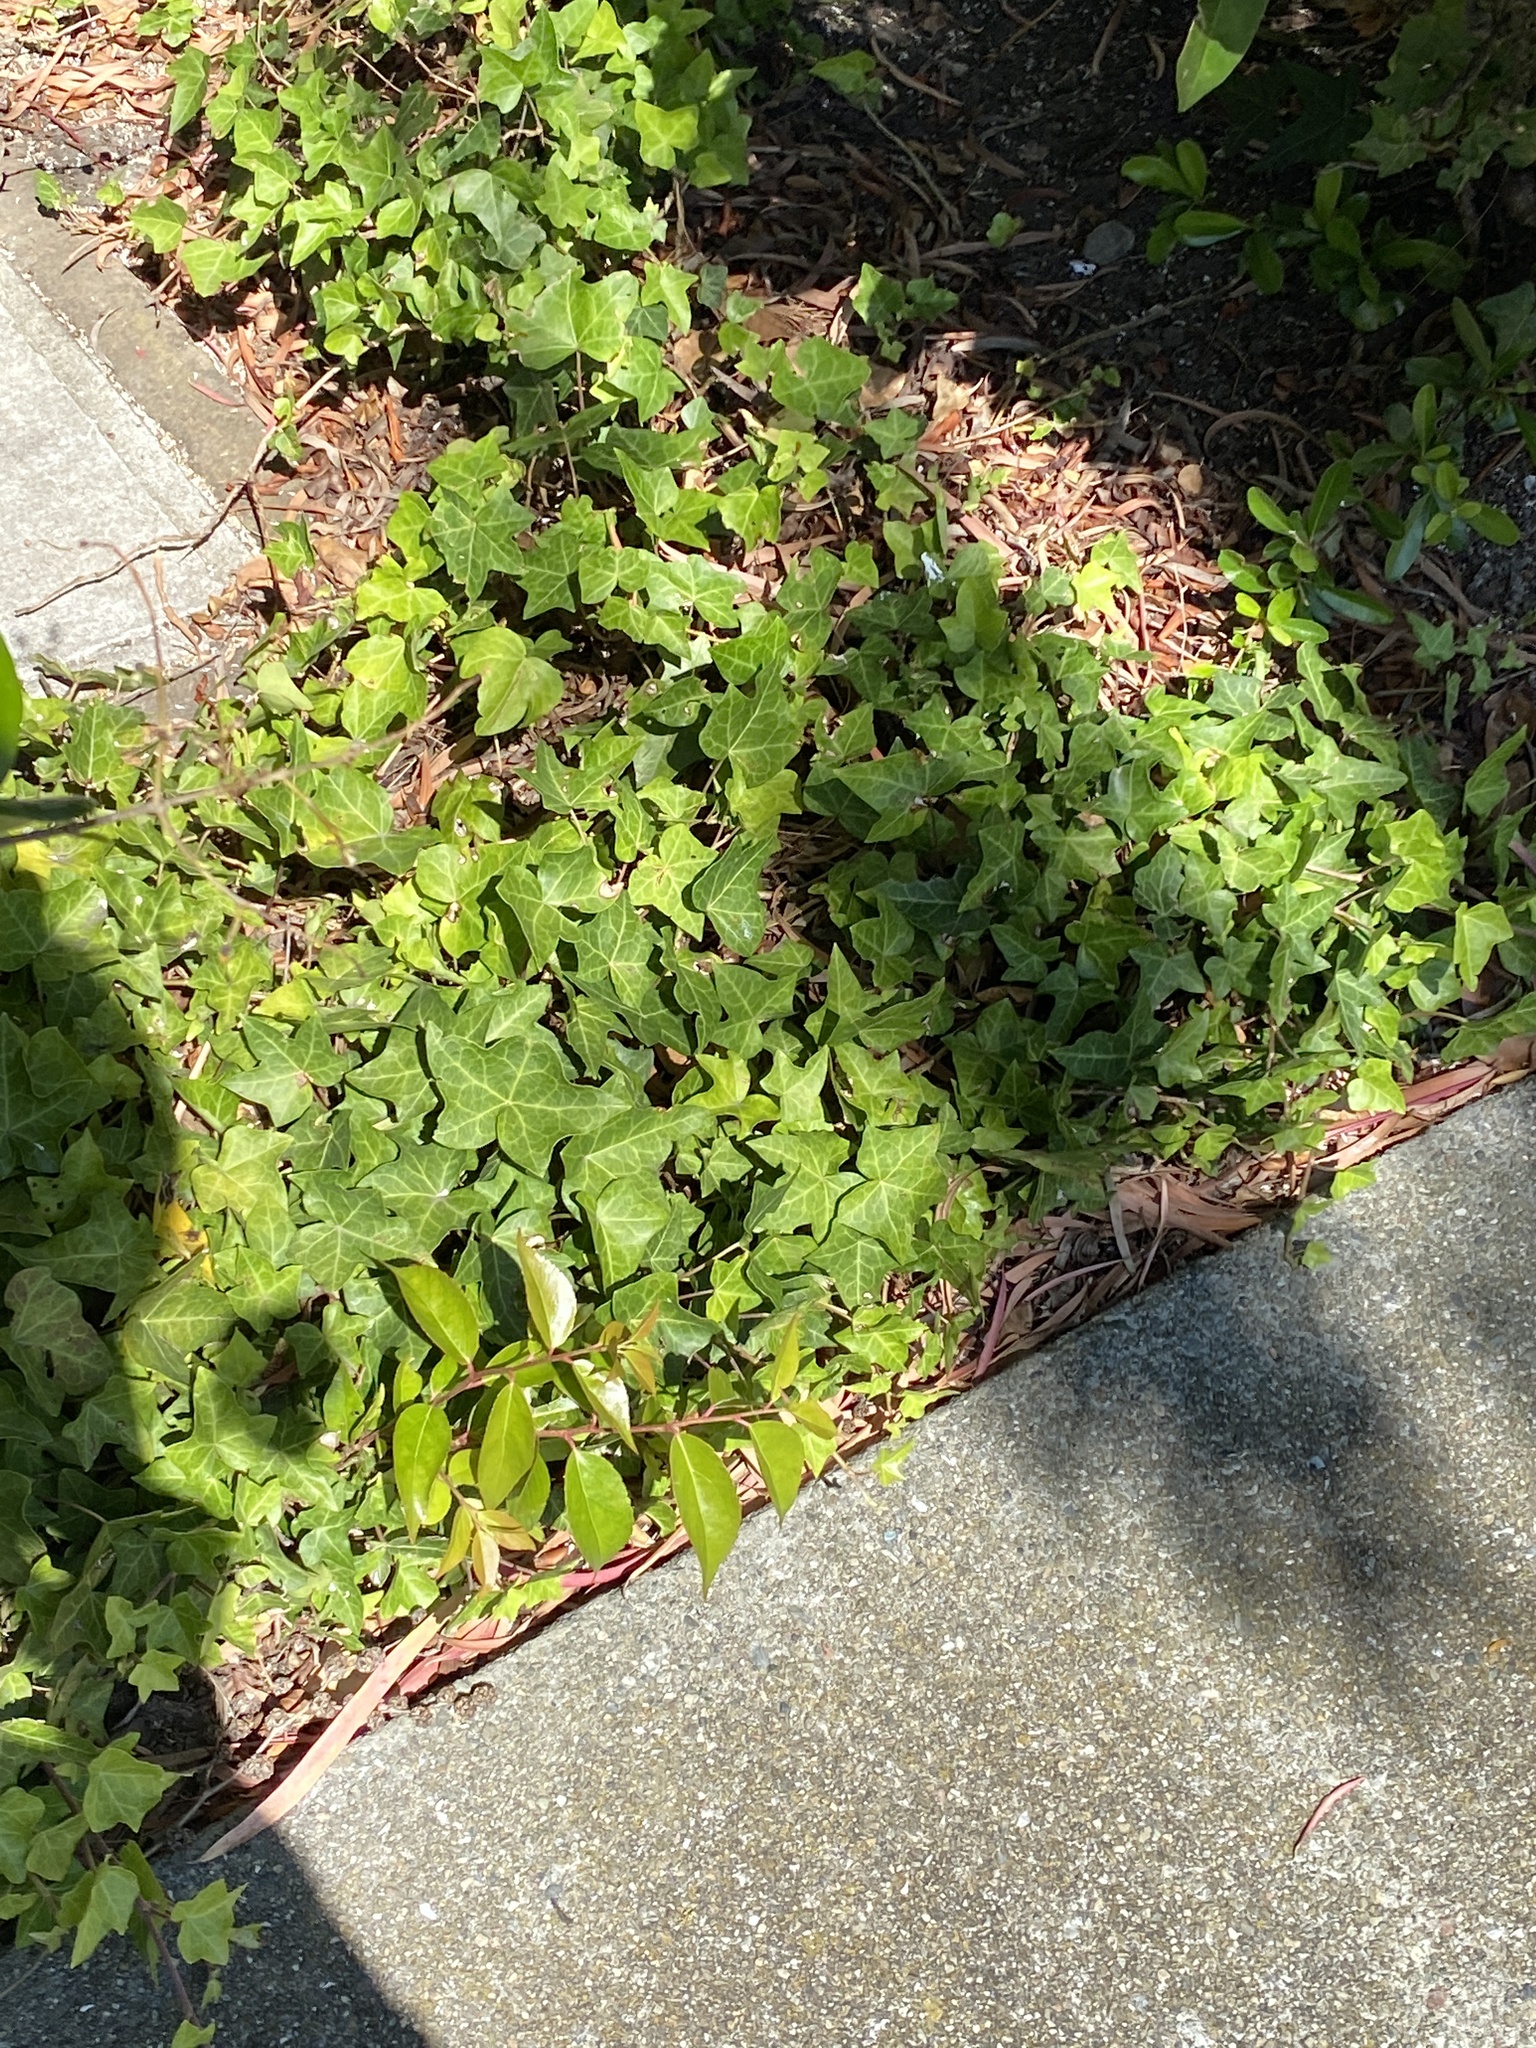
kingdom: Plantae
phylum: Tracheophyta
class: Magnoliopsida
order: Apiales
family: Araliaceae
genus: Hedera
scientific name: Hedera helix
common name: Ivy
